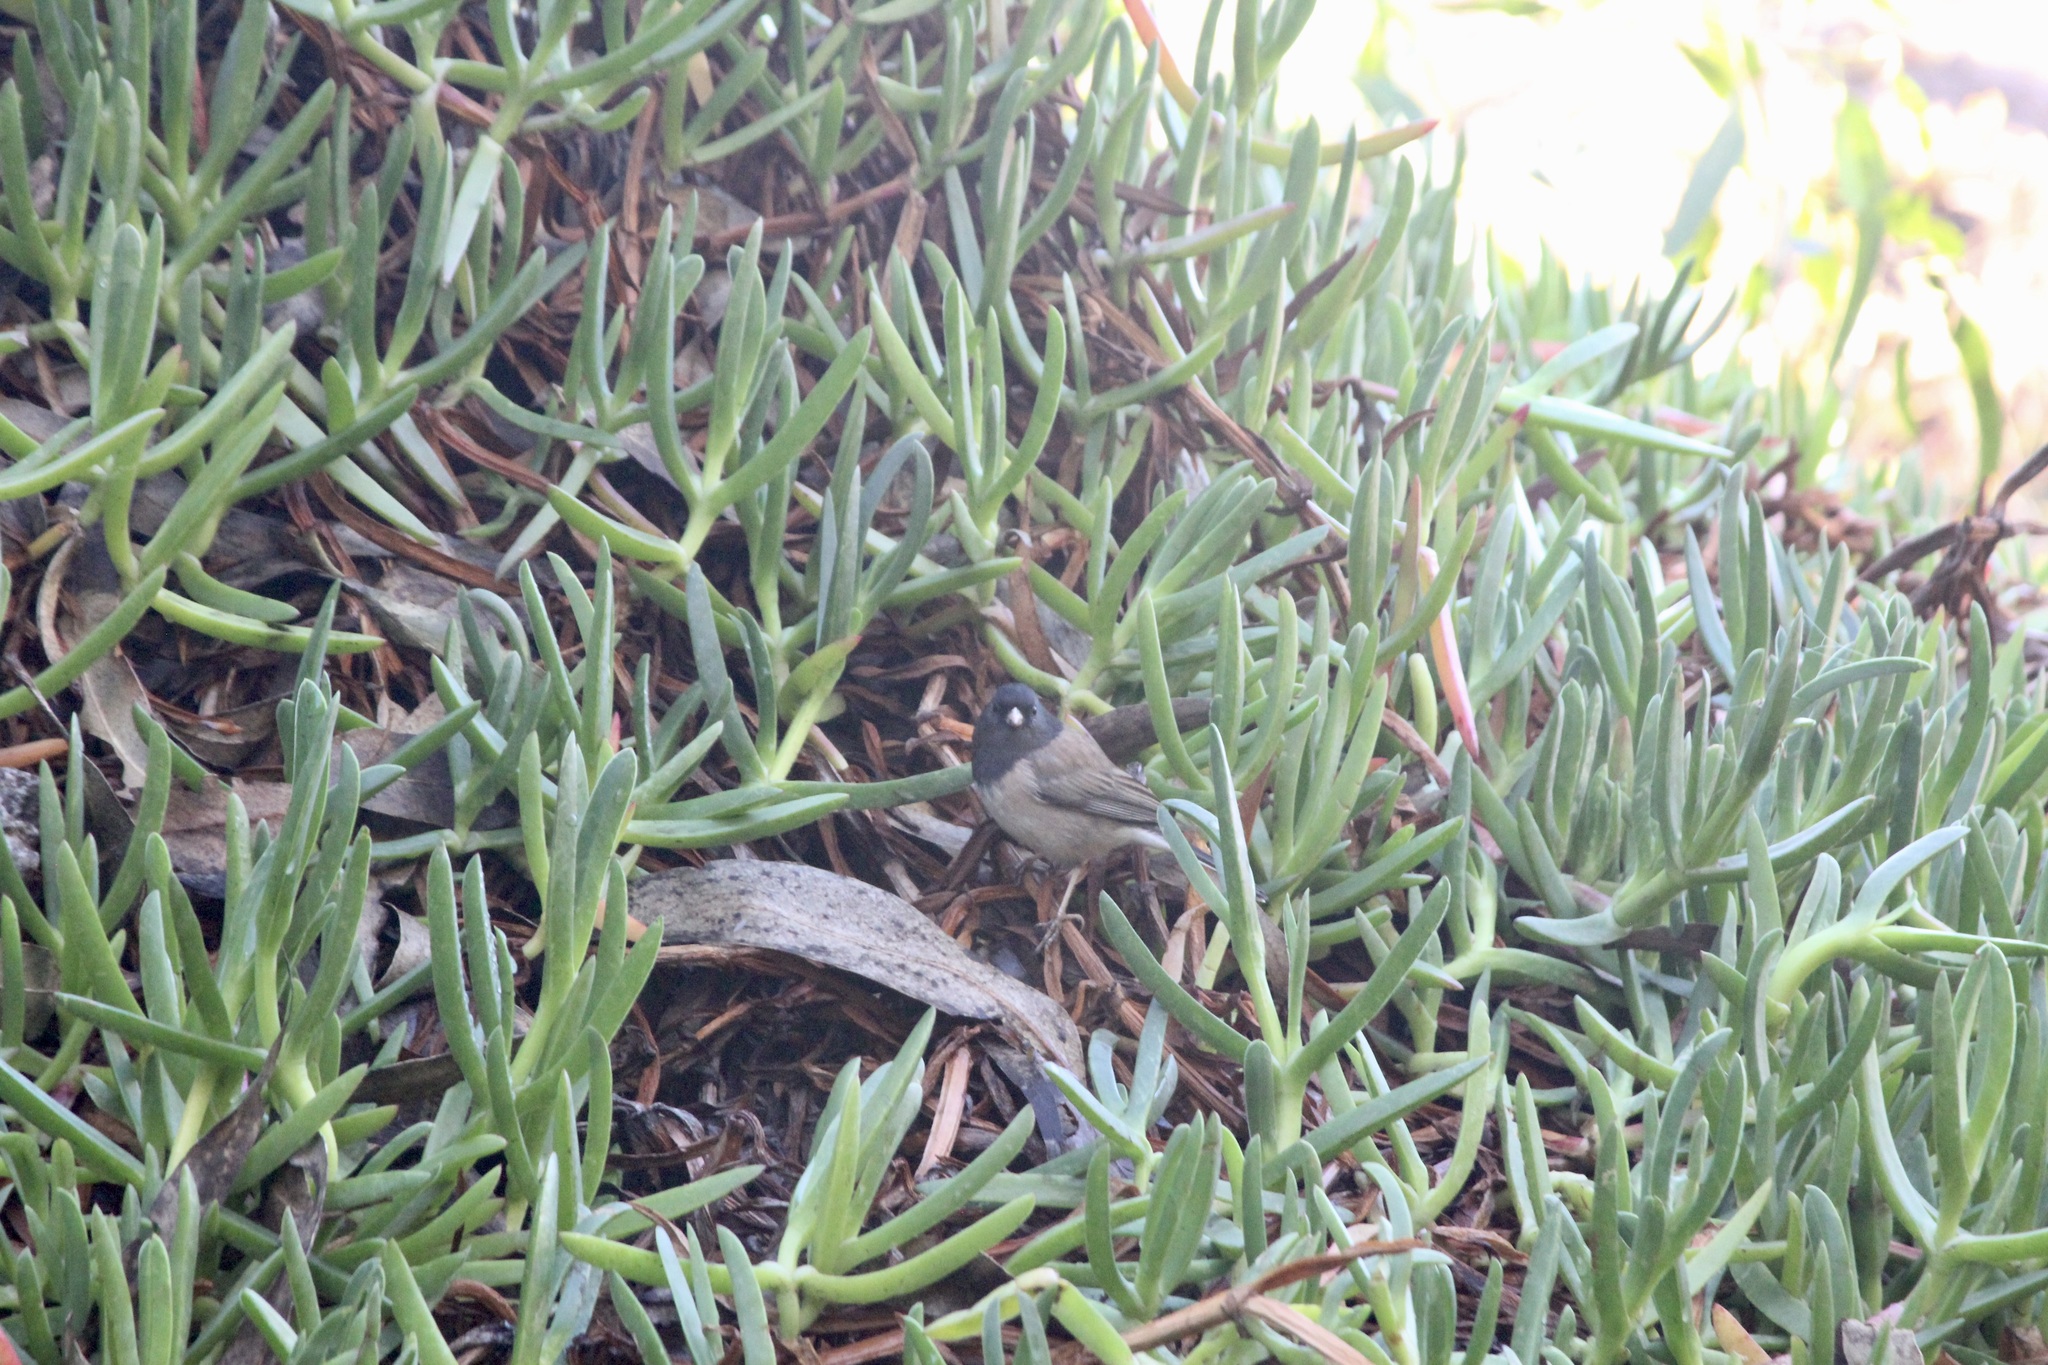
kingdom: Animalia
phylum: Chordata
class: Aves
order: Passeriformes
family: Passerellidae
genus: Junco
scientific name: Junco hyemalis
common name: Dark-eyed junco
